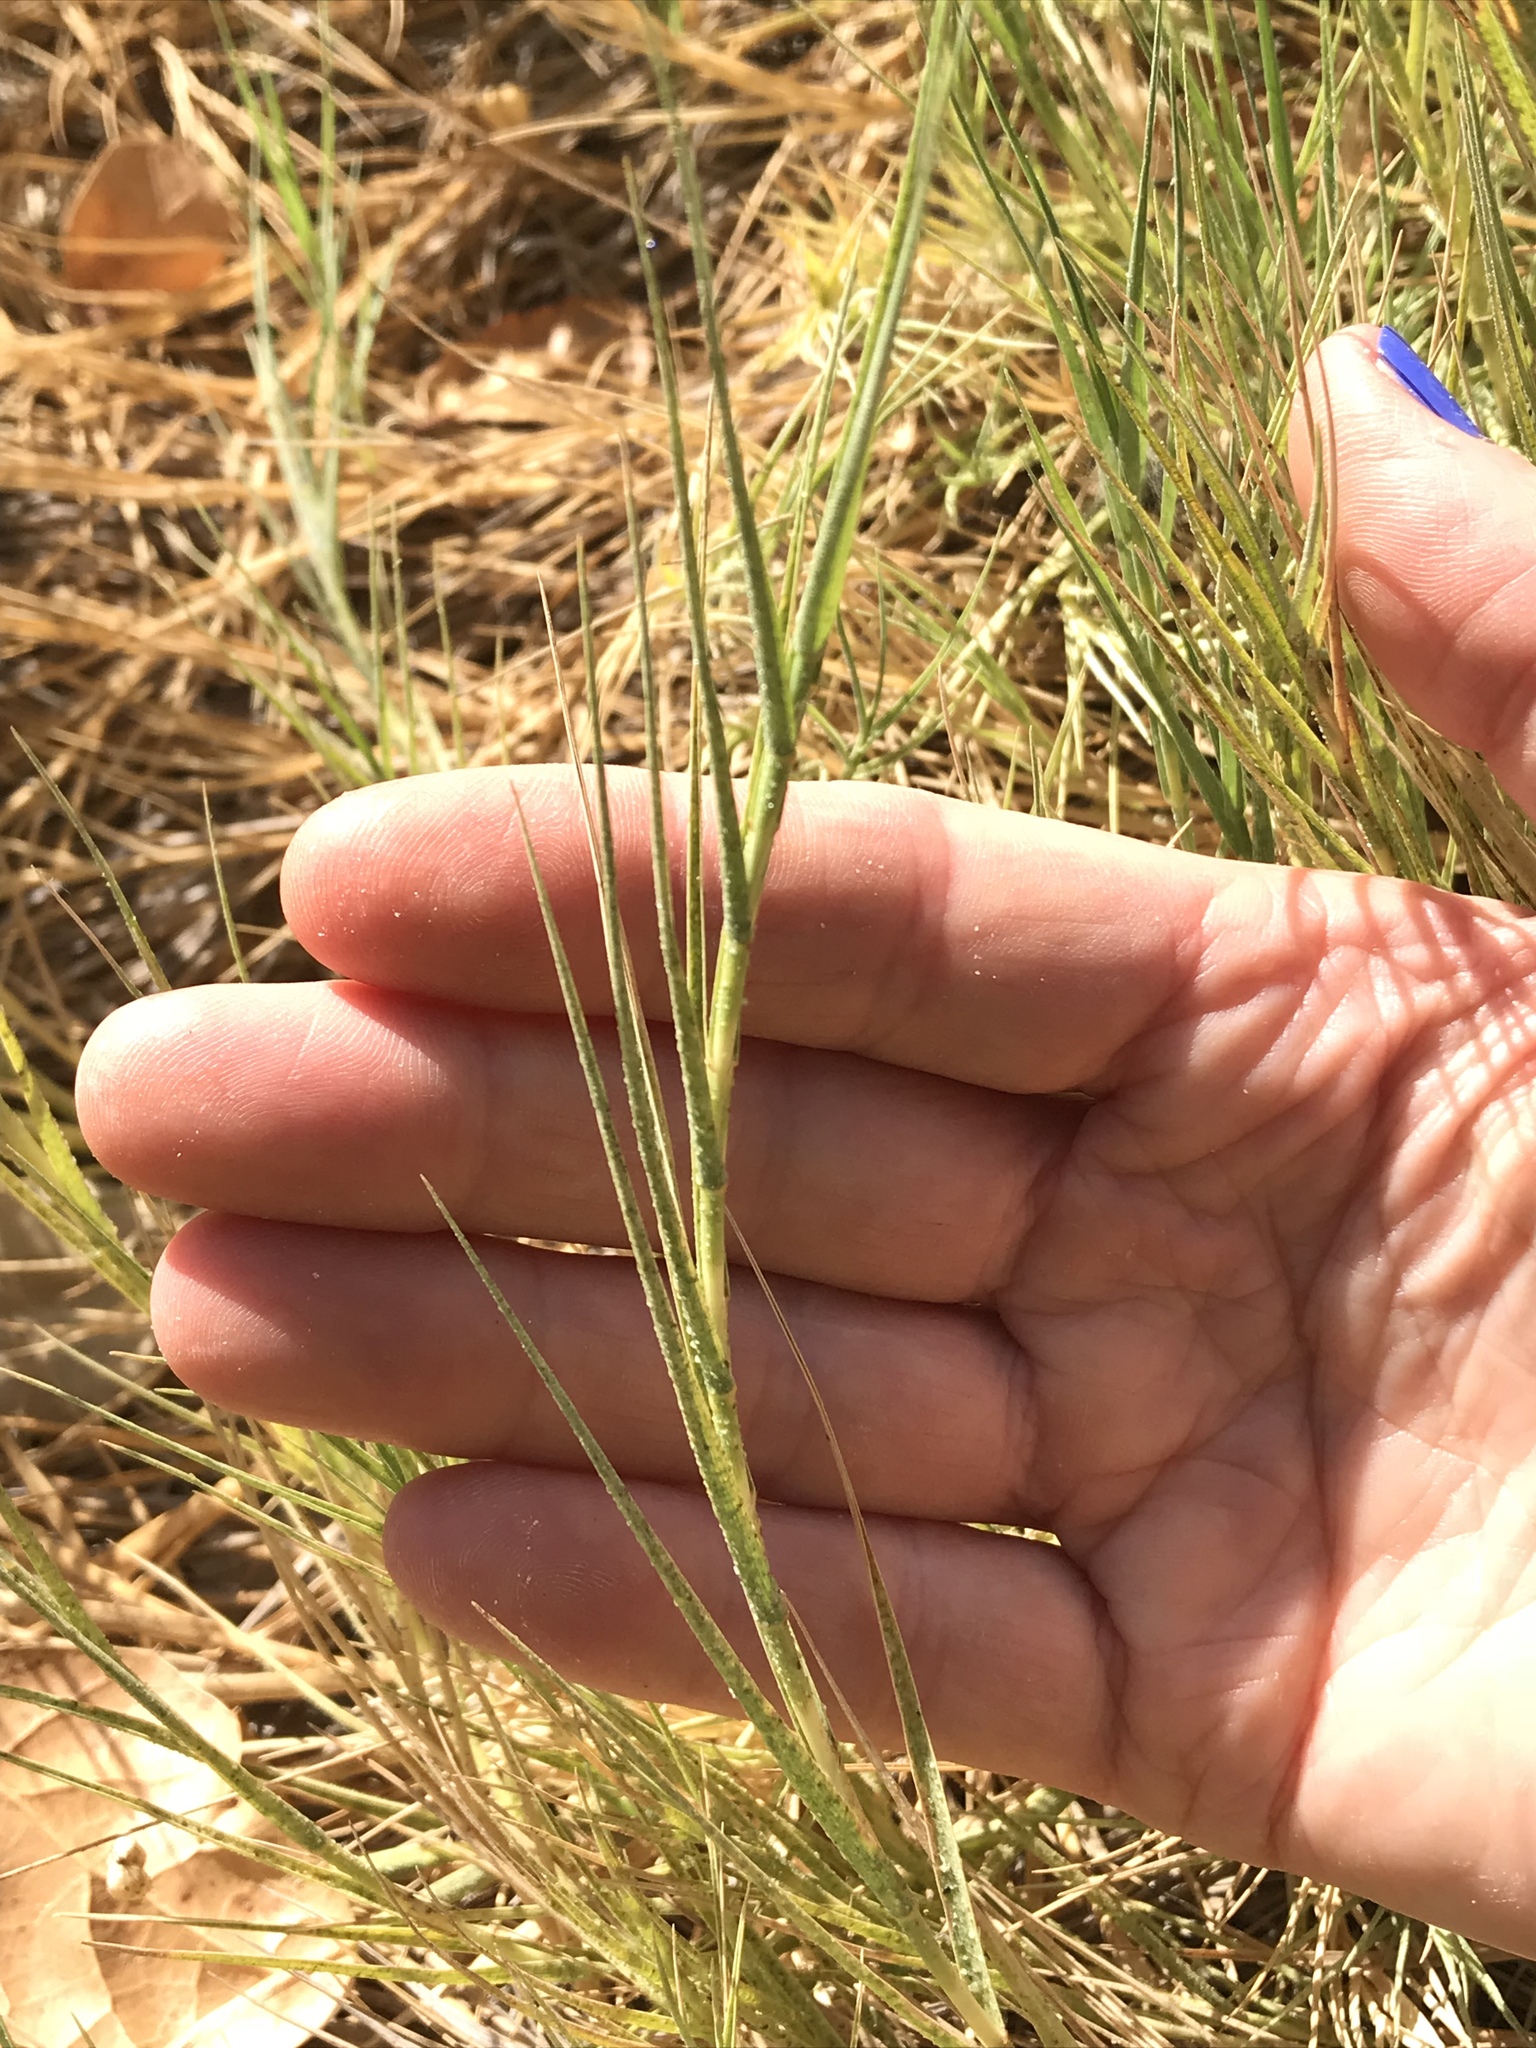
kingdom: Plantae
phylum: Tracheophyta
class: Liliopsida
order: Poales
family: Poaceae
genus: Distichlis
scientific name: Distichlis spicata
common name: Saltgrass
